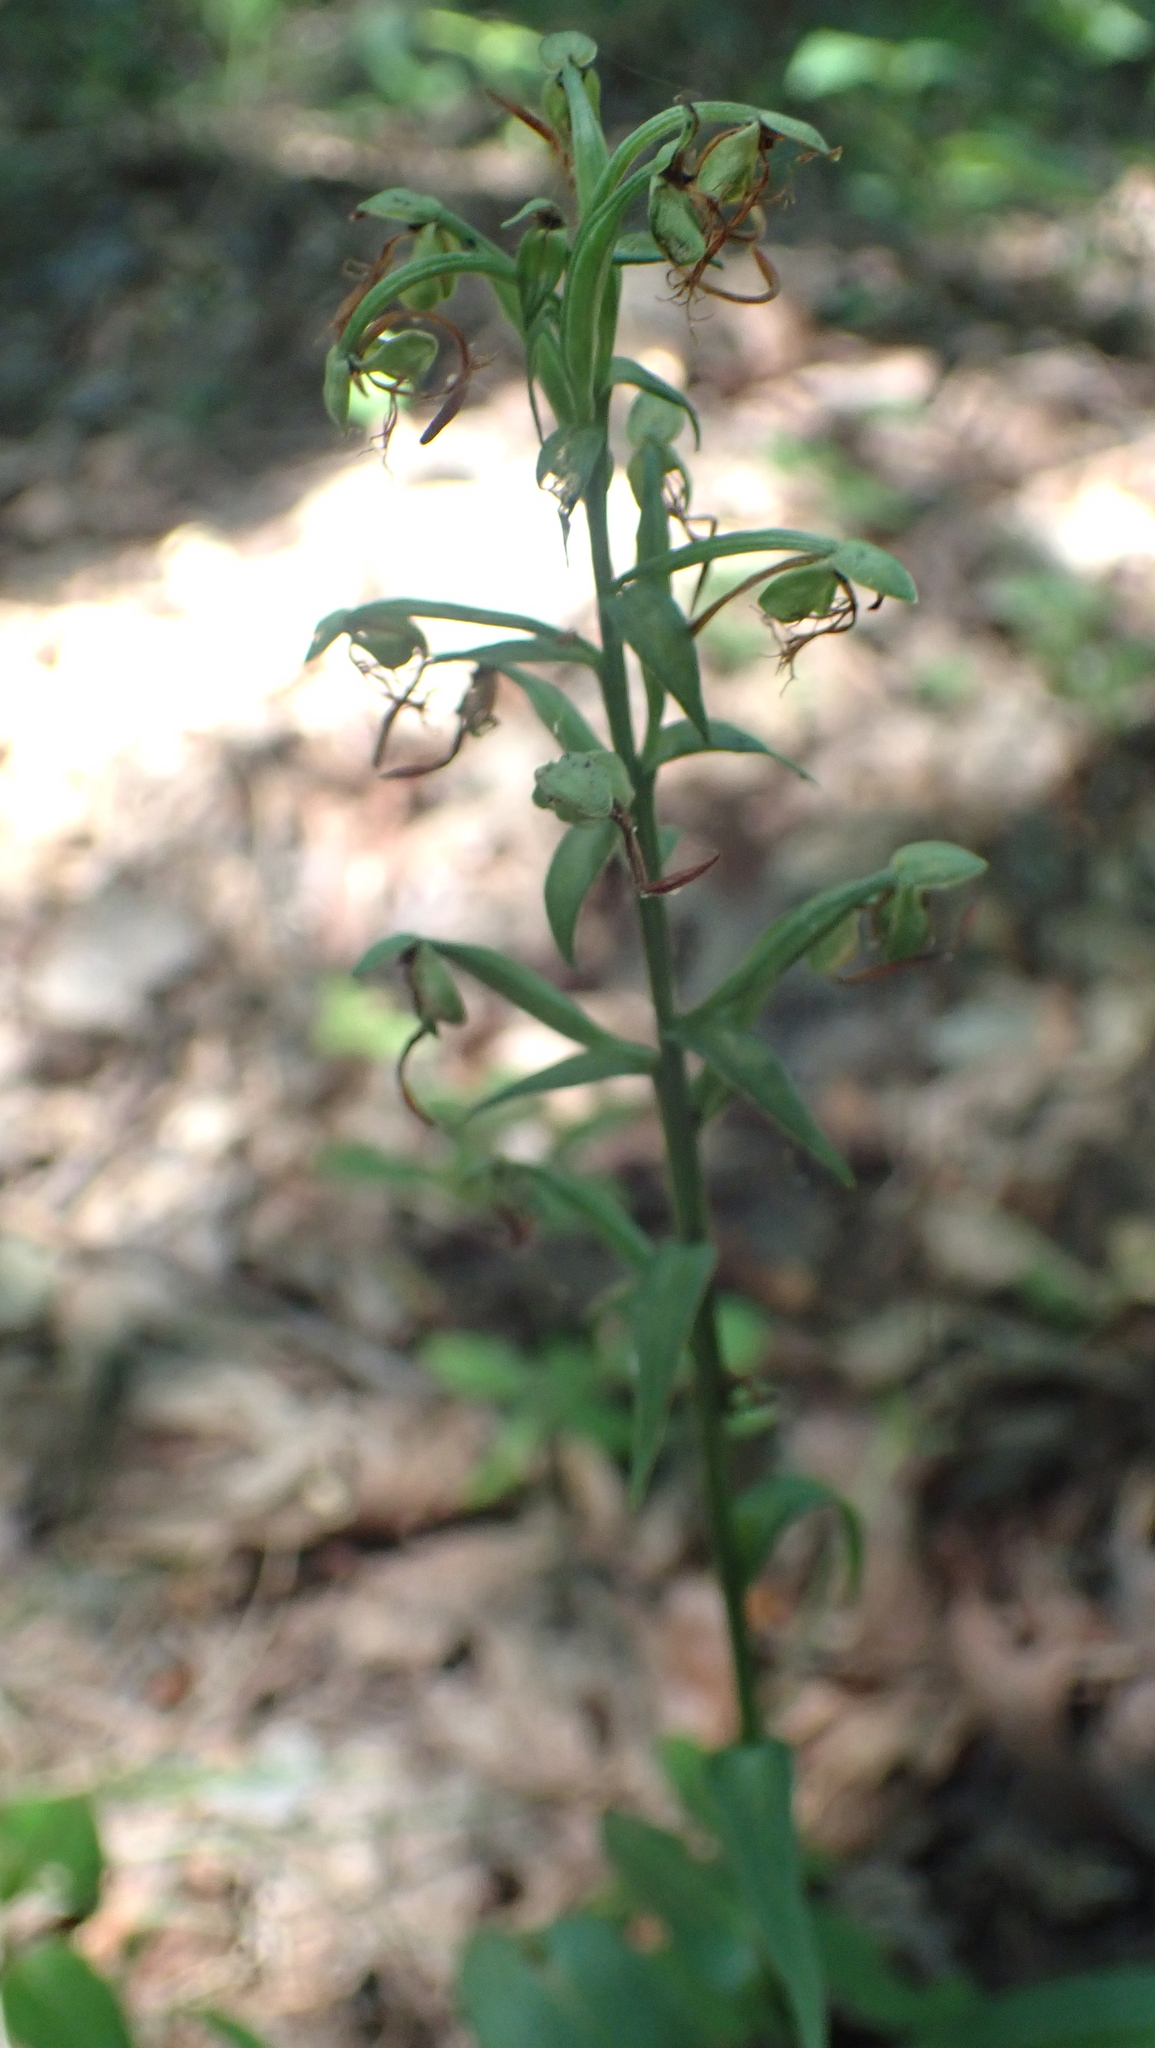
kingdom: Plantae
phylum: Tracheophyta
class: Liliopsida
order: Asparagales
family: Orchidaceae
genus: Platanthera
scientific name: Platanthera lacera
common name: Green fringed orchid
